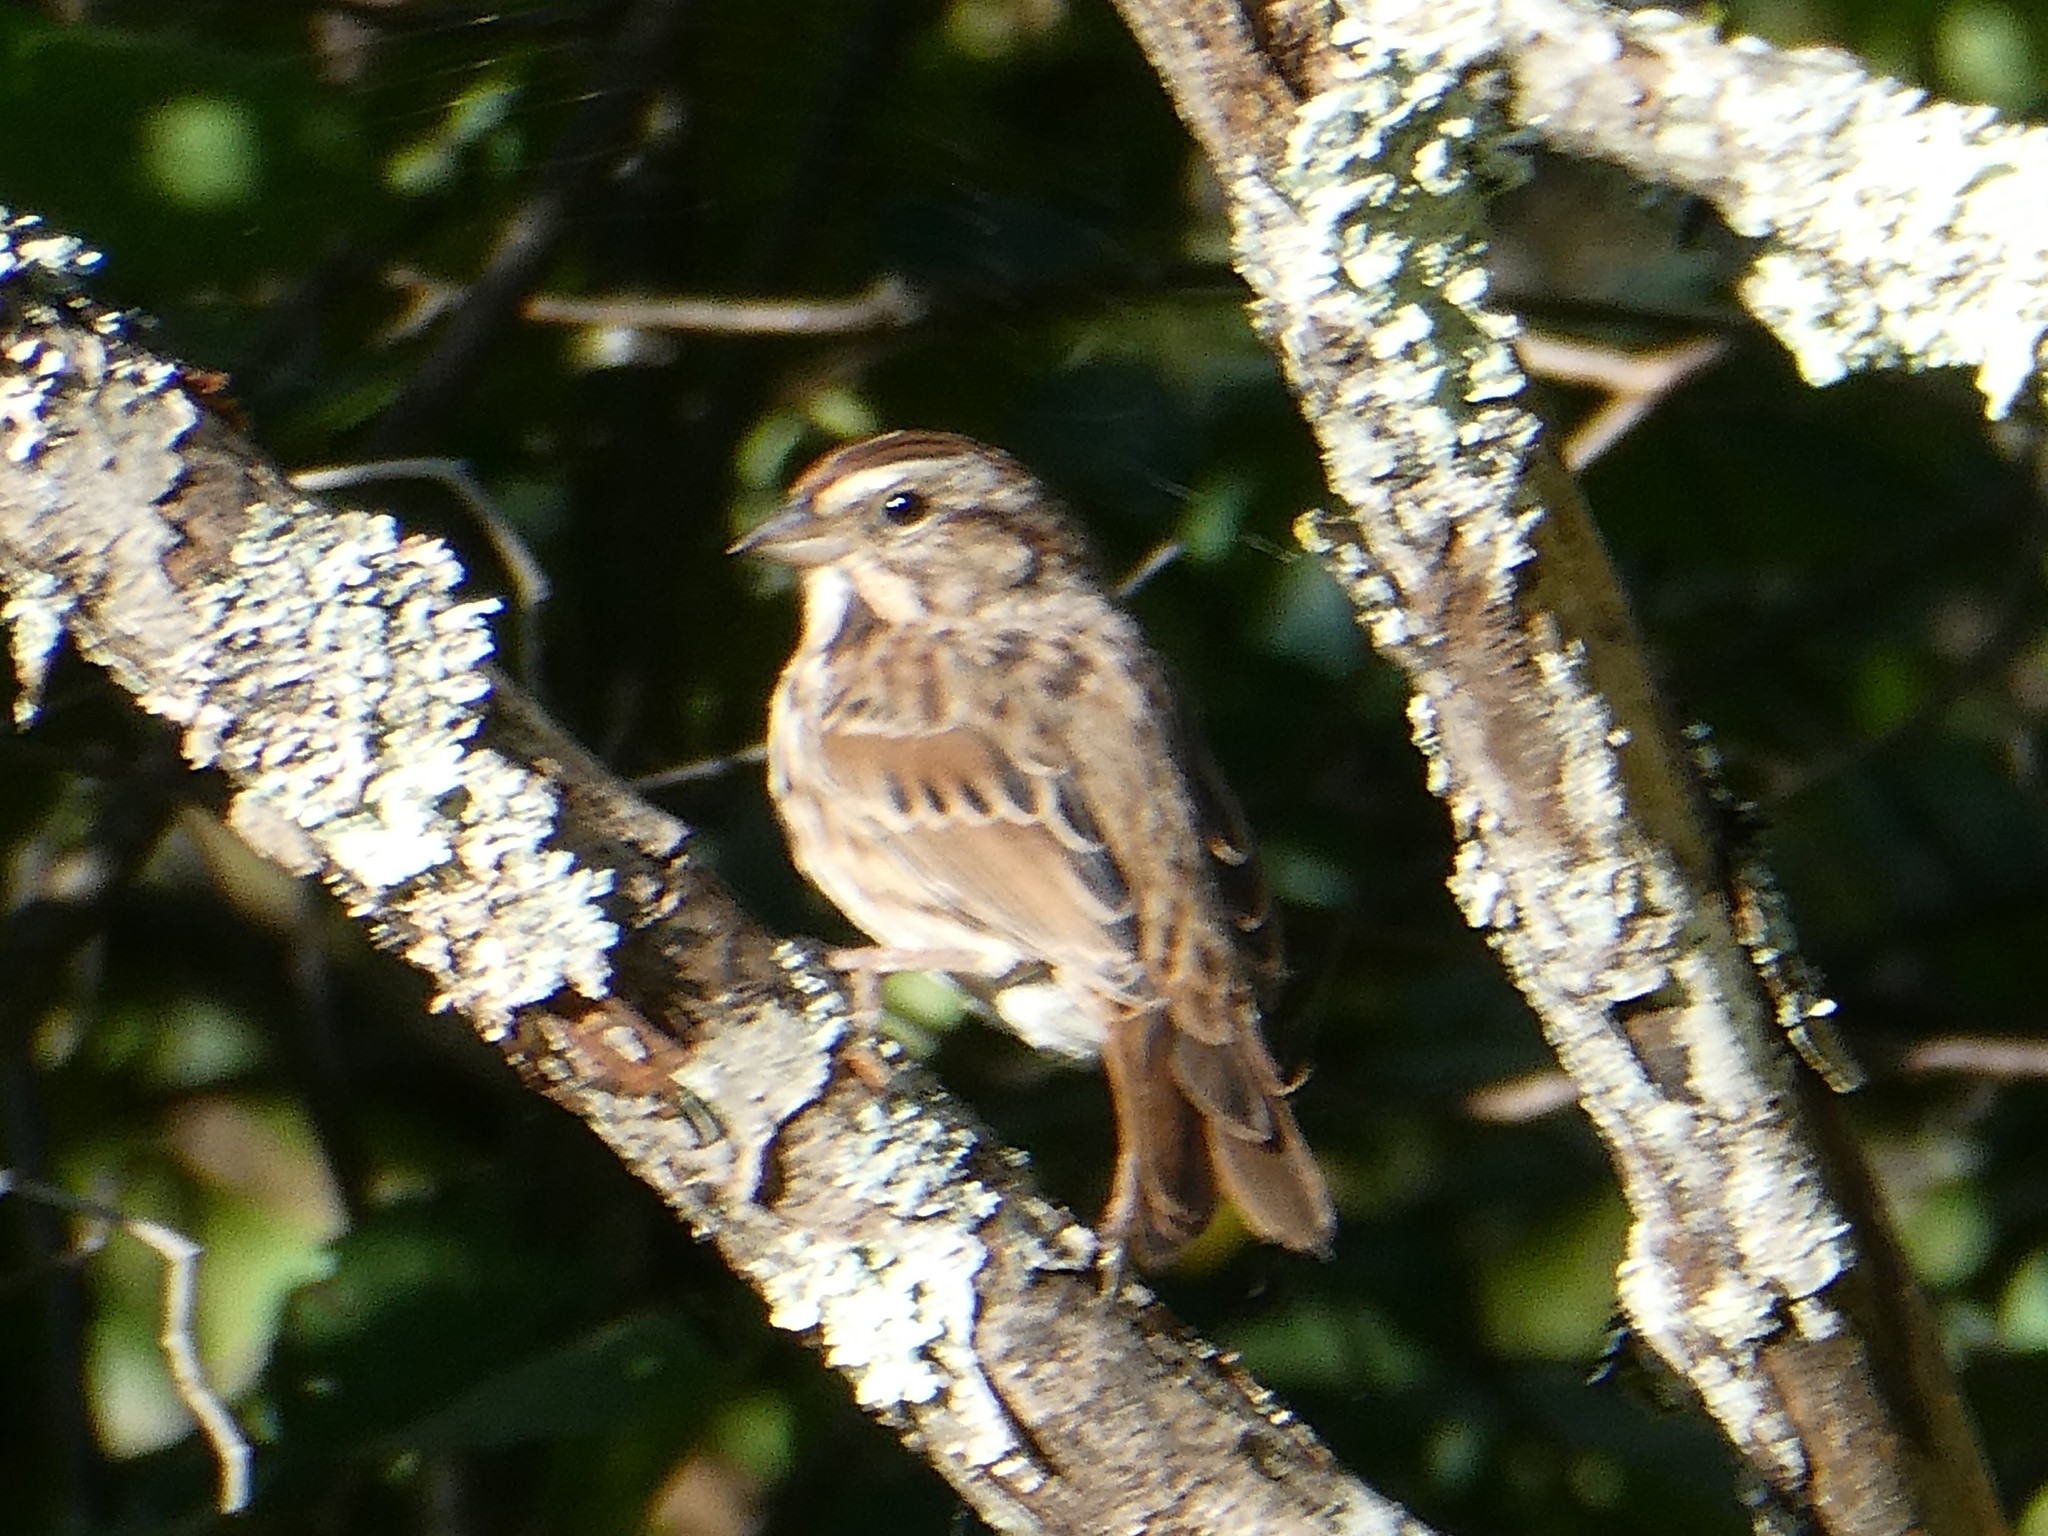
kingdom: Animalia
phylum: Chordata
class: Aves
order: Passeriformes
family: Passerellidae
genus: Melospiza
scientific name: Melospiza melodia
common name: Song sparrow
